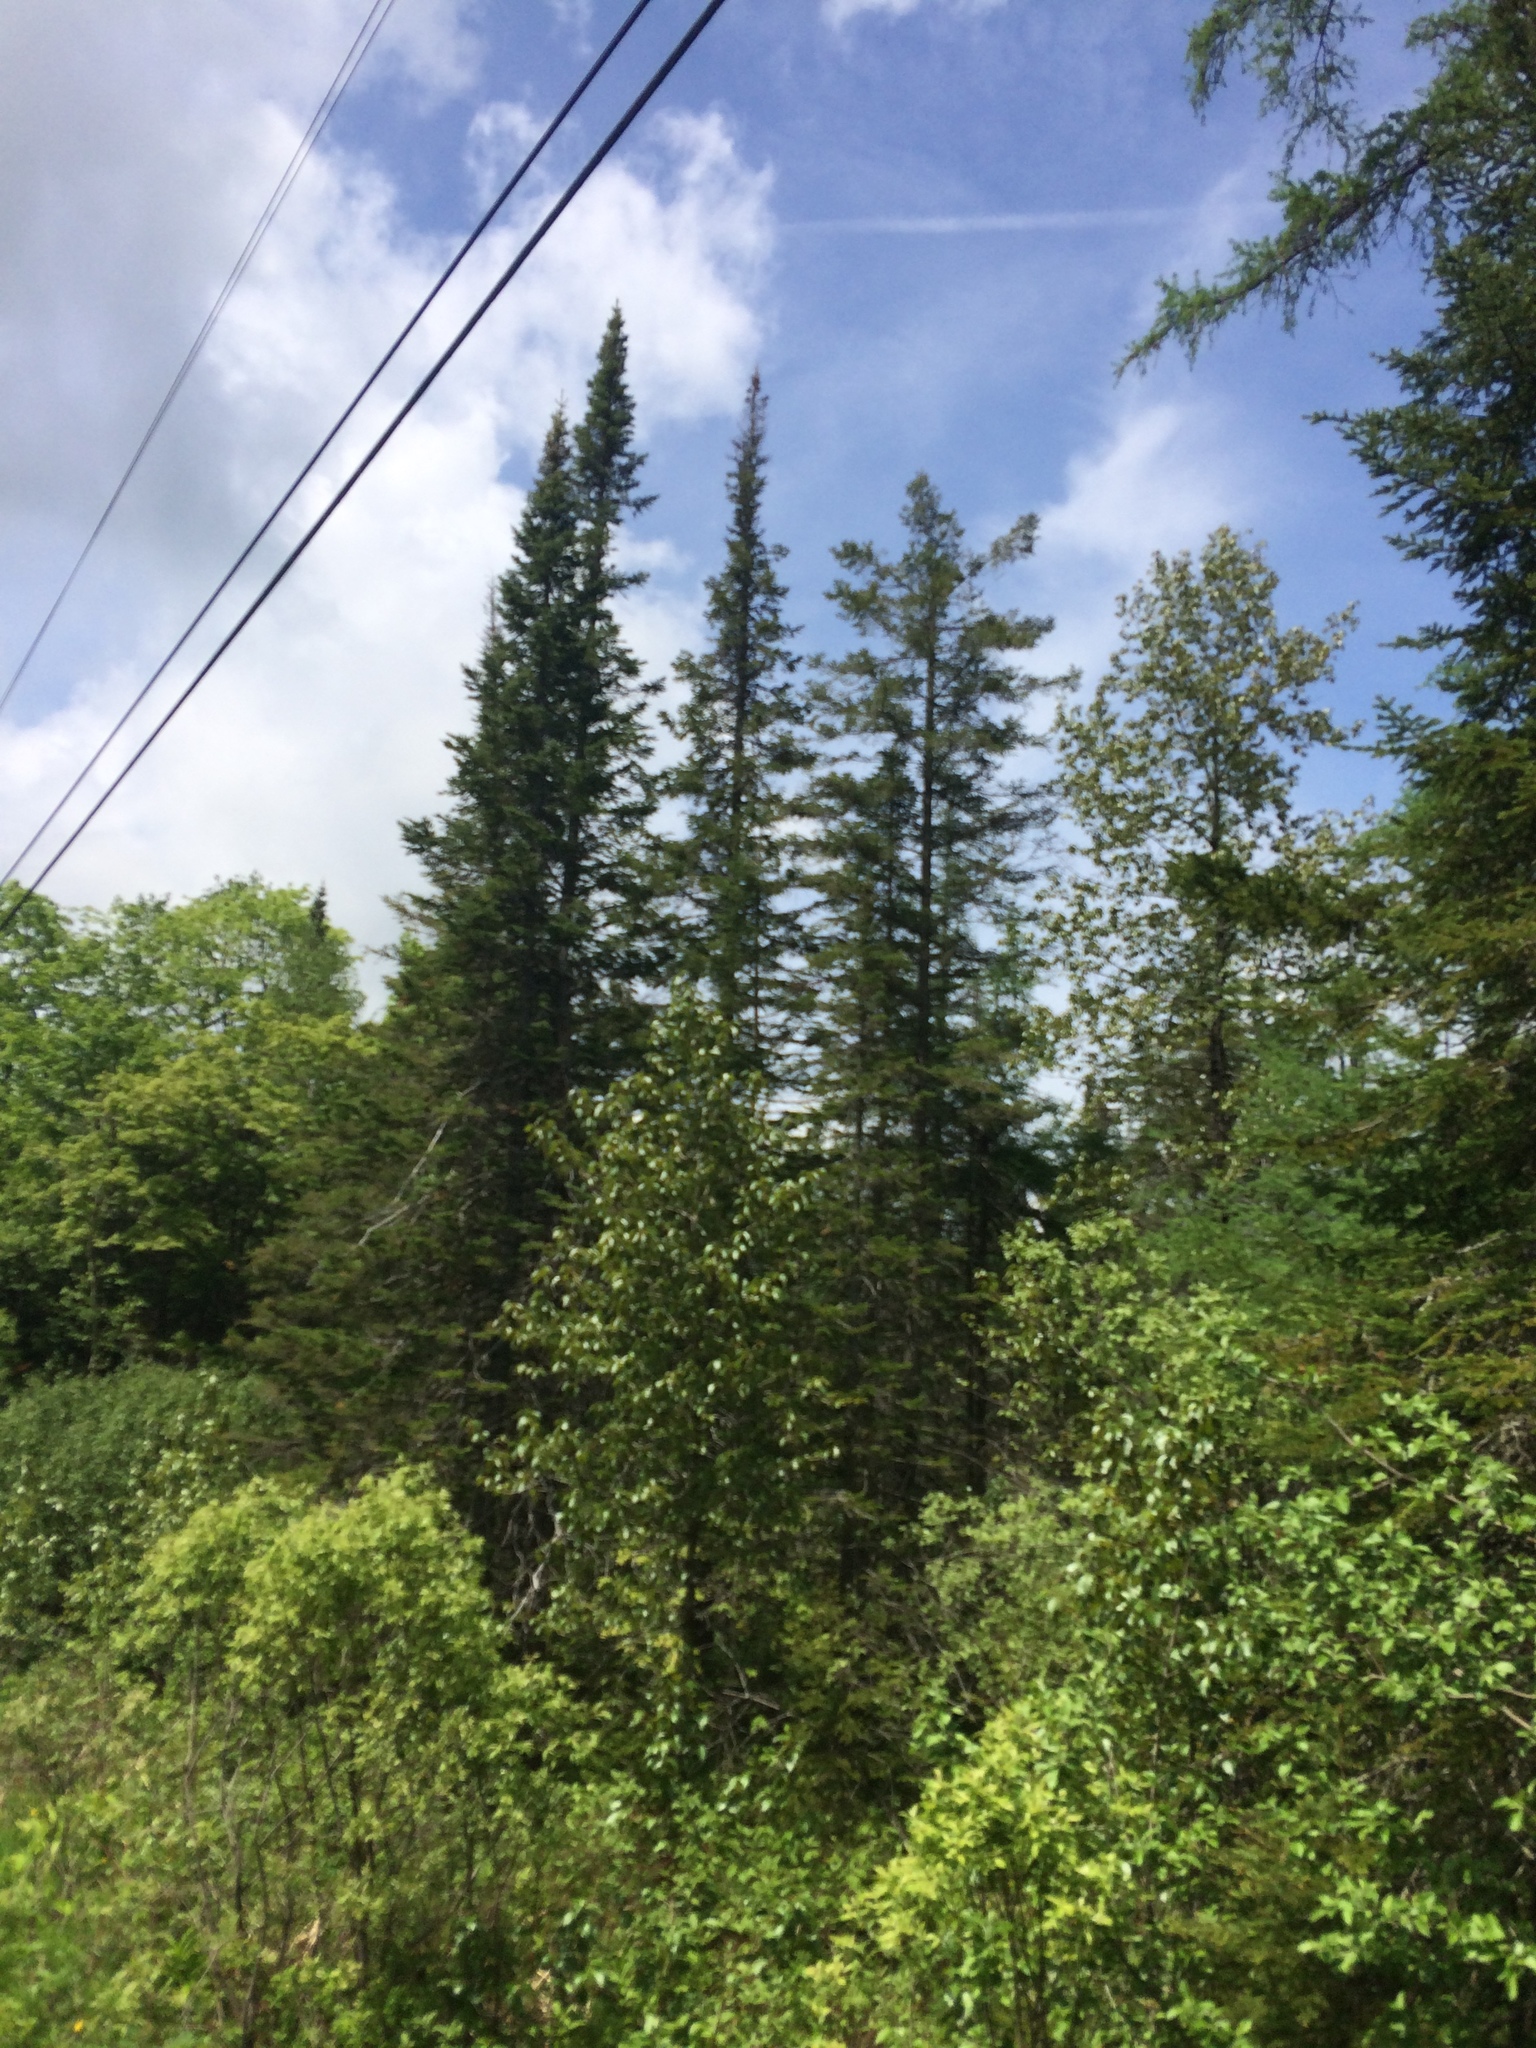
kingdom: Plantae
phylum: Tracheophyta
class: Pinopsida
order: Pinales
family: Pinaceae
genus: Abies
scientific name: Abies balsamea
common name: Balsam fir
